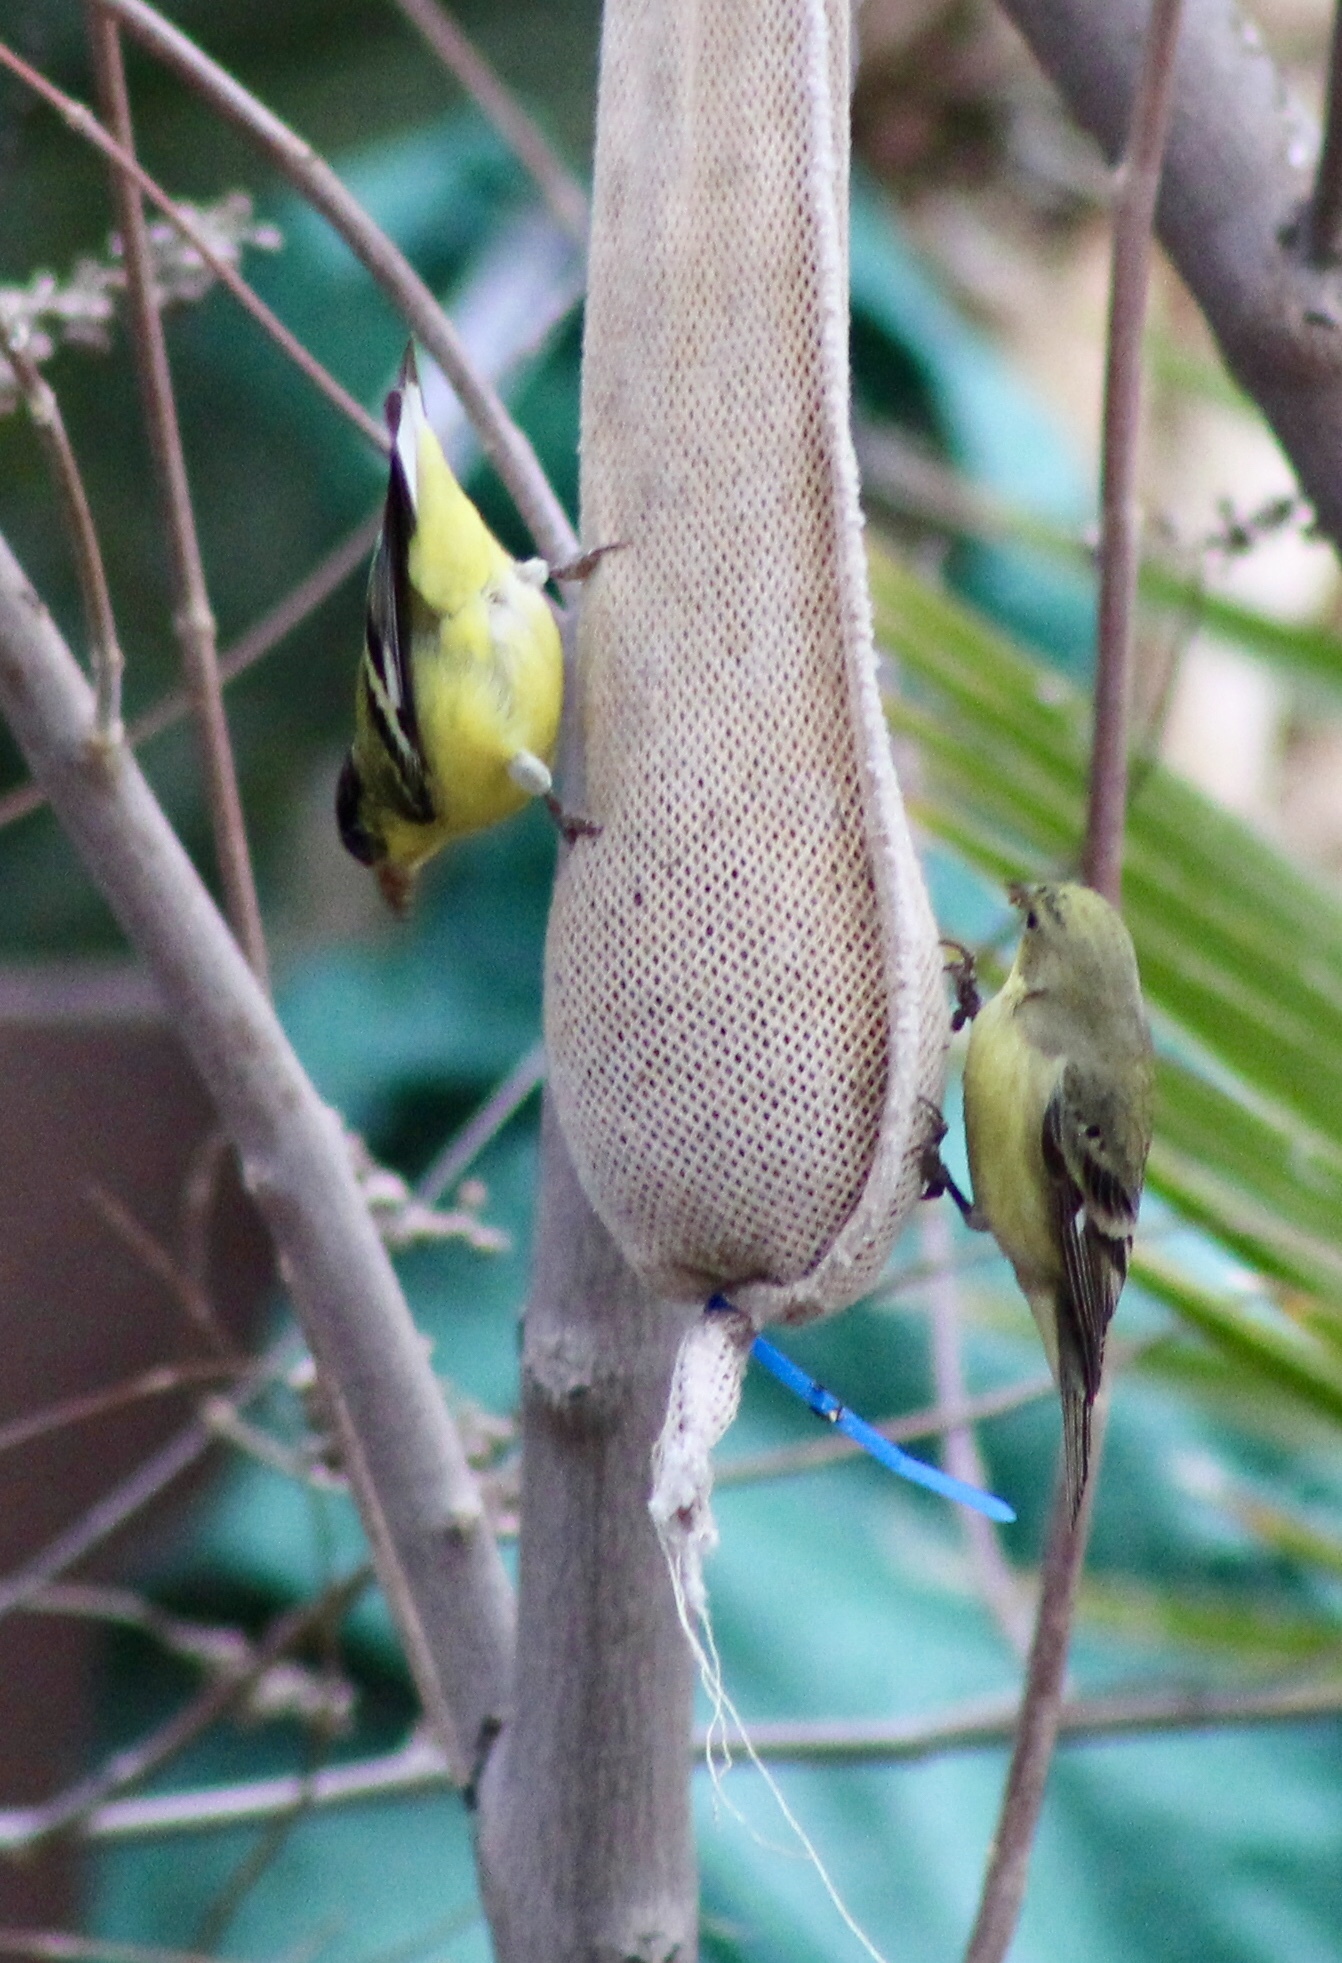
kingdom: Animalia
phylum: Chordata
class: Aves
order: Passeriformes
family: Fringillidae
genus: Spinus
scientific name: Spinus psaltria
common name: Lesser goldfinch
